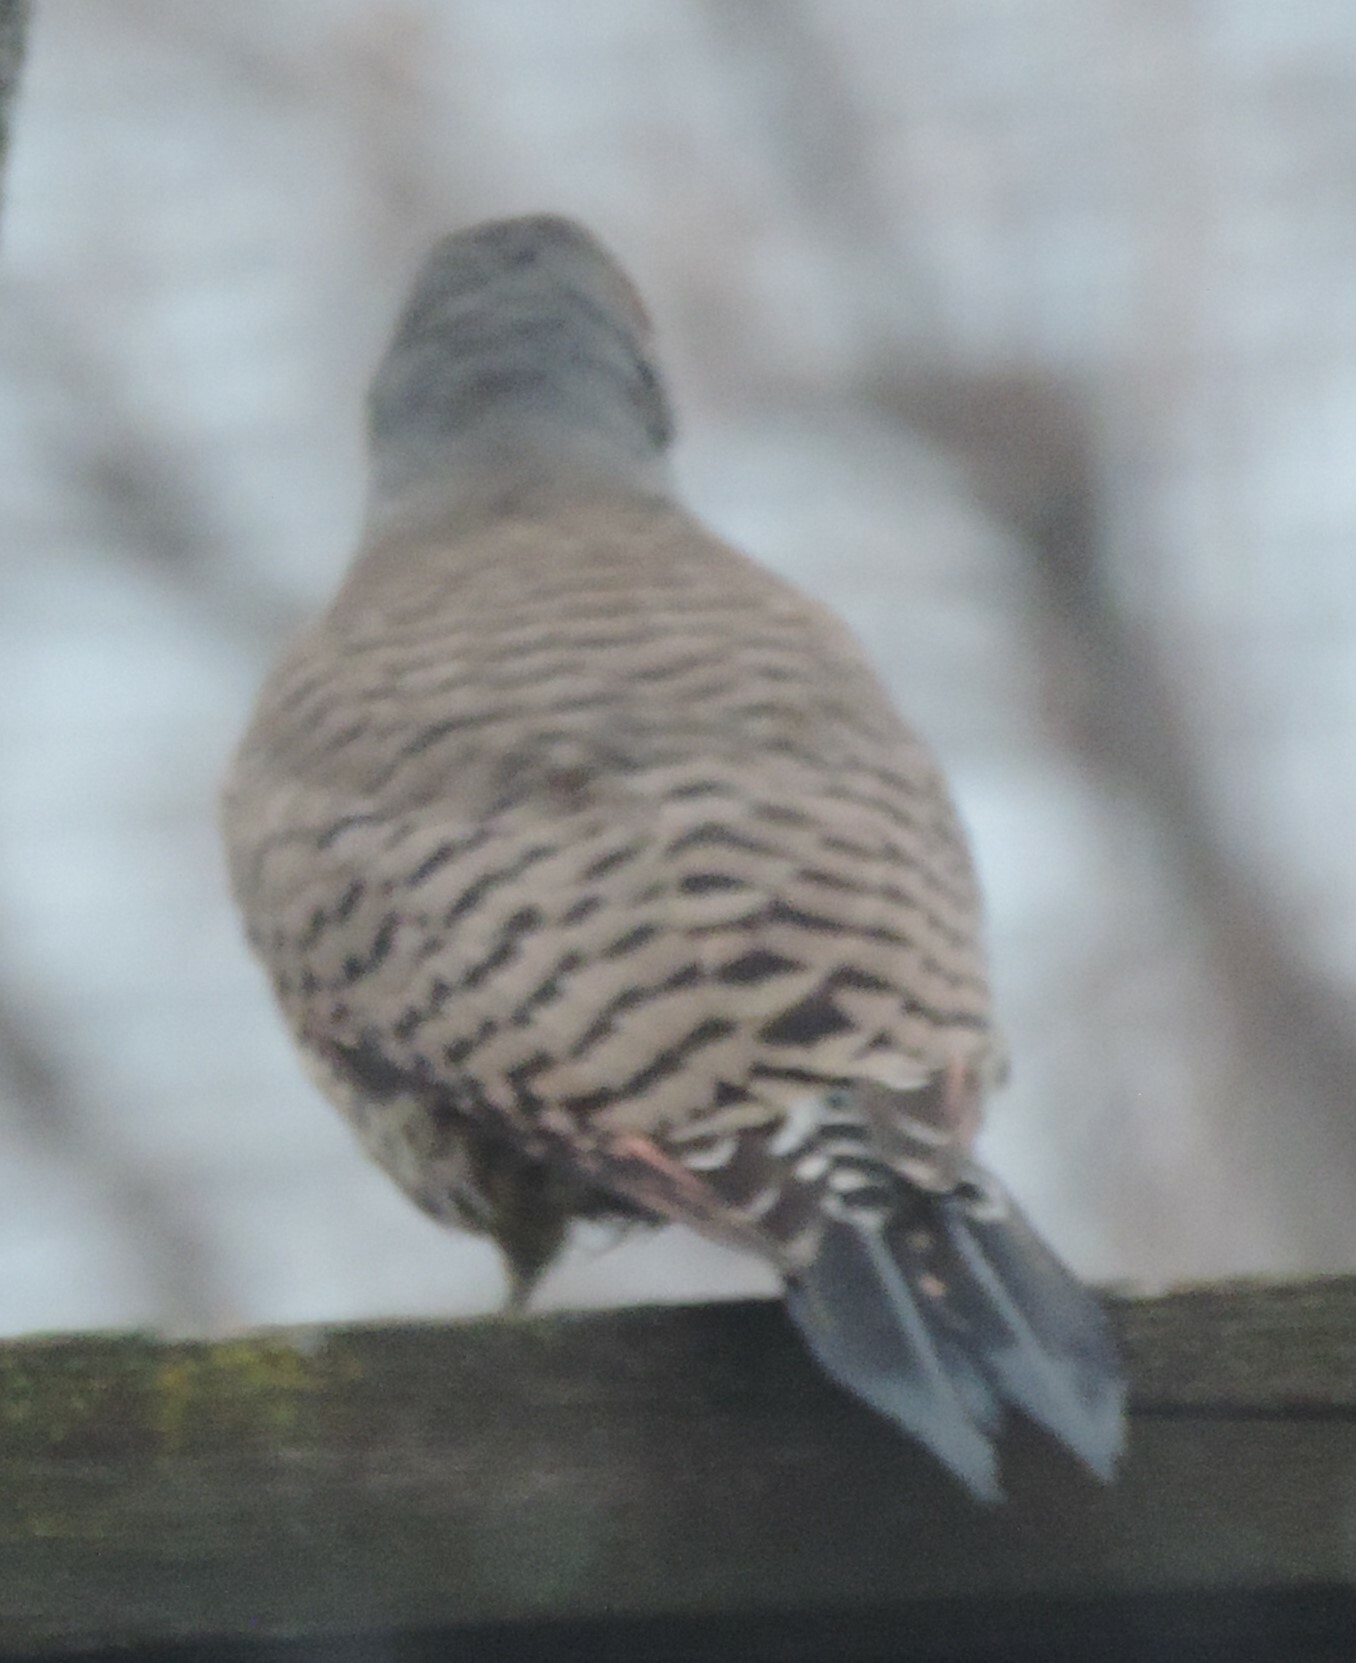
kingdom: Animalia
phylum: Chordata
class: Aves
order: Piciformes
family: Picidae
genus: Colaptes
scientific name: Colaptes auratus
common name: Northern flicker
